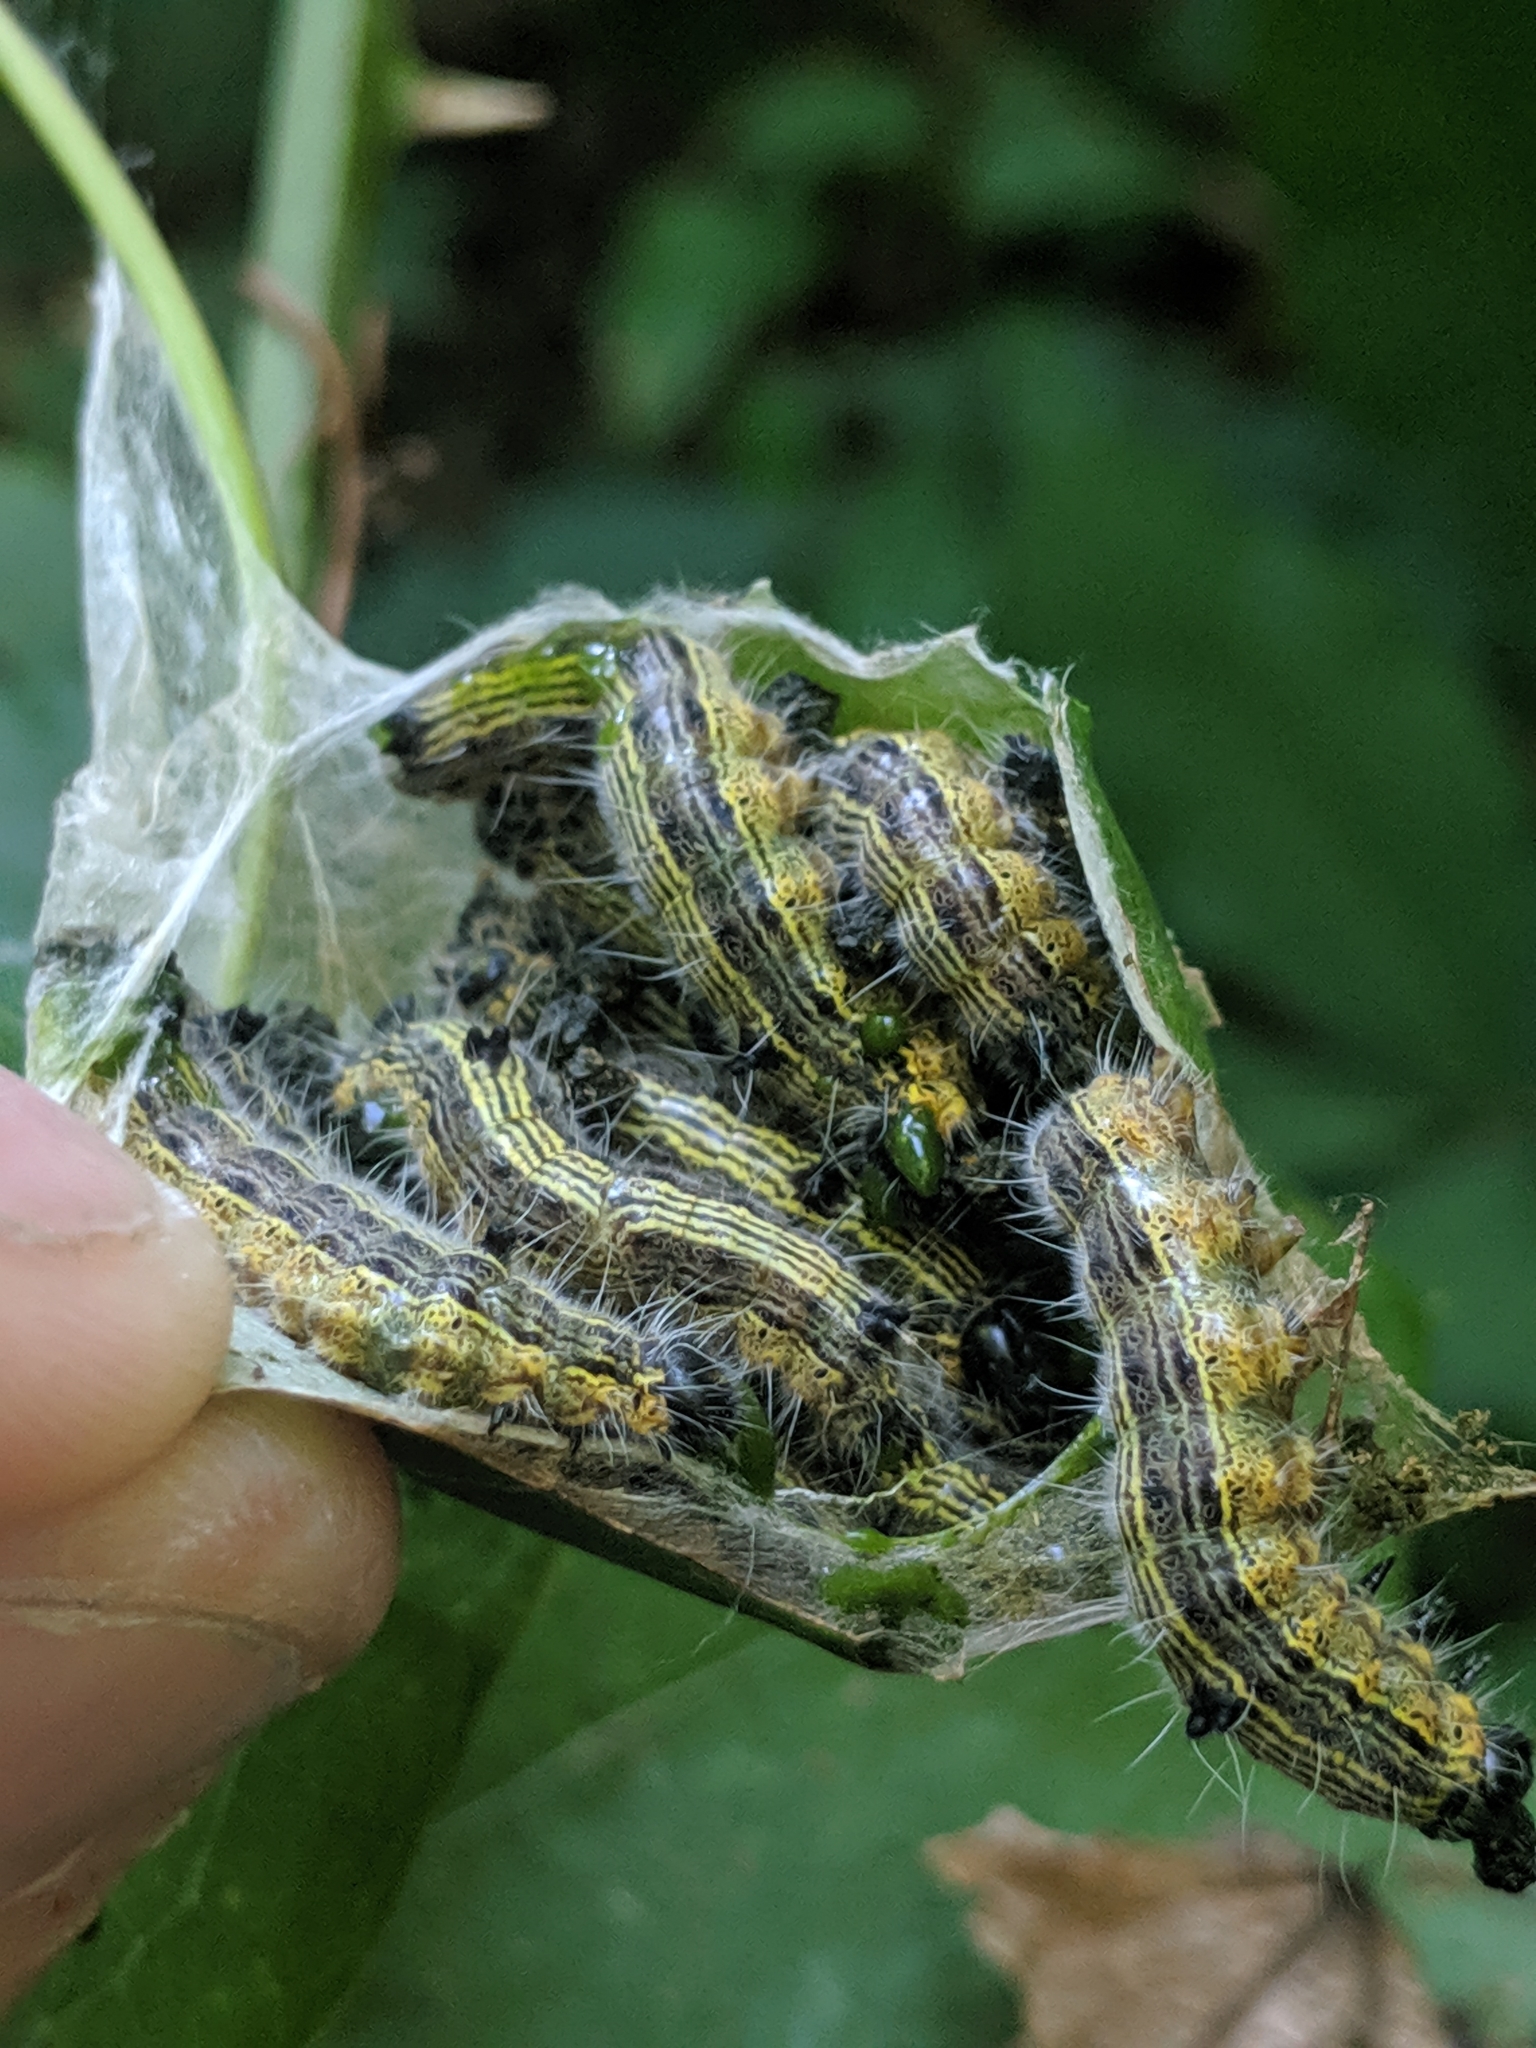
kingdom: Animalia
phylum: Arthropoda
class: Insecta
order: Lepidoptera
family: Notodontidae
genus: Clostera
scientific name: Clostera inclusa
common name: Angle-lined prominent
